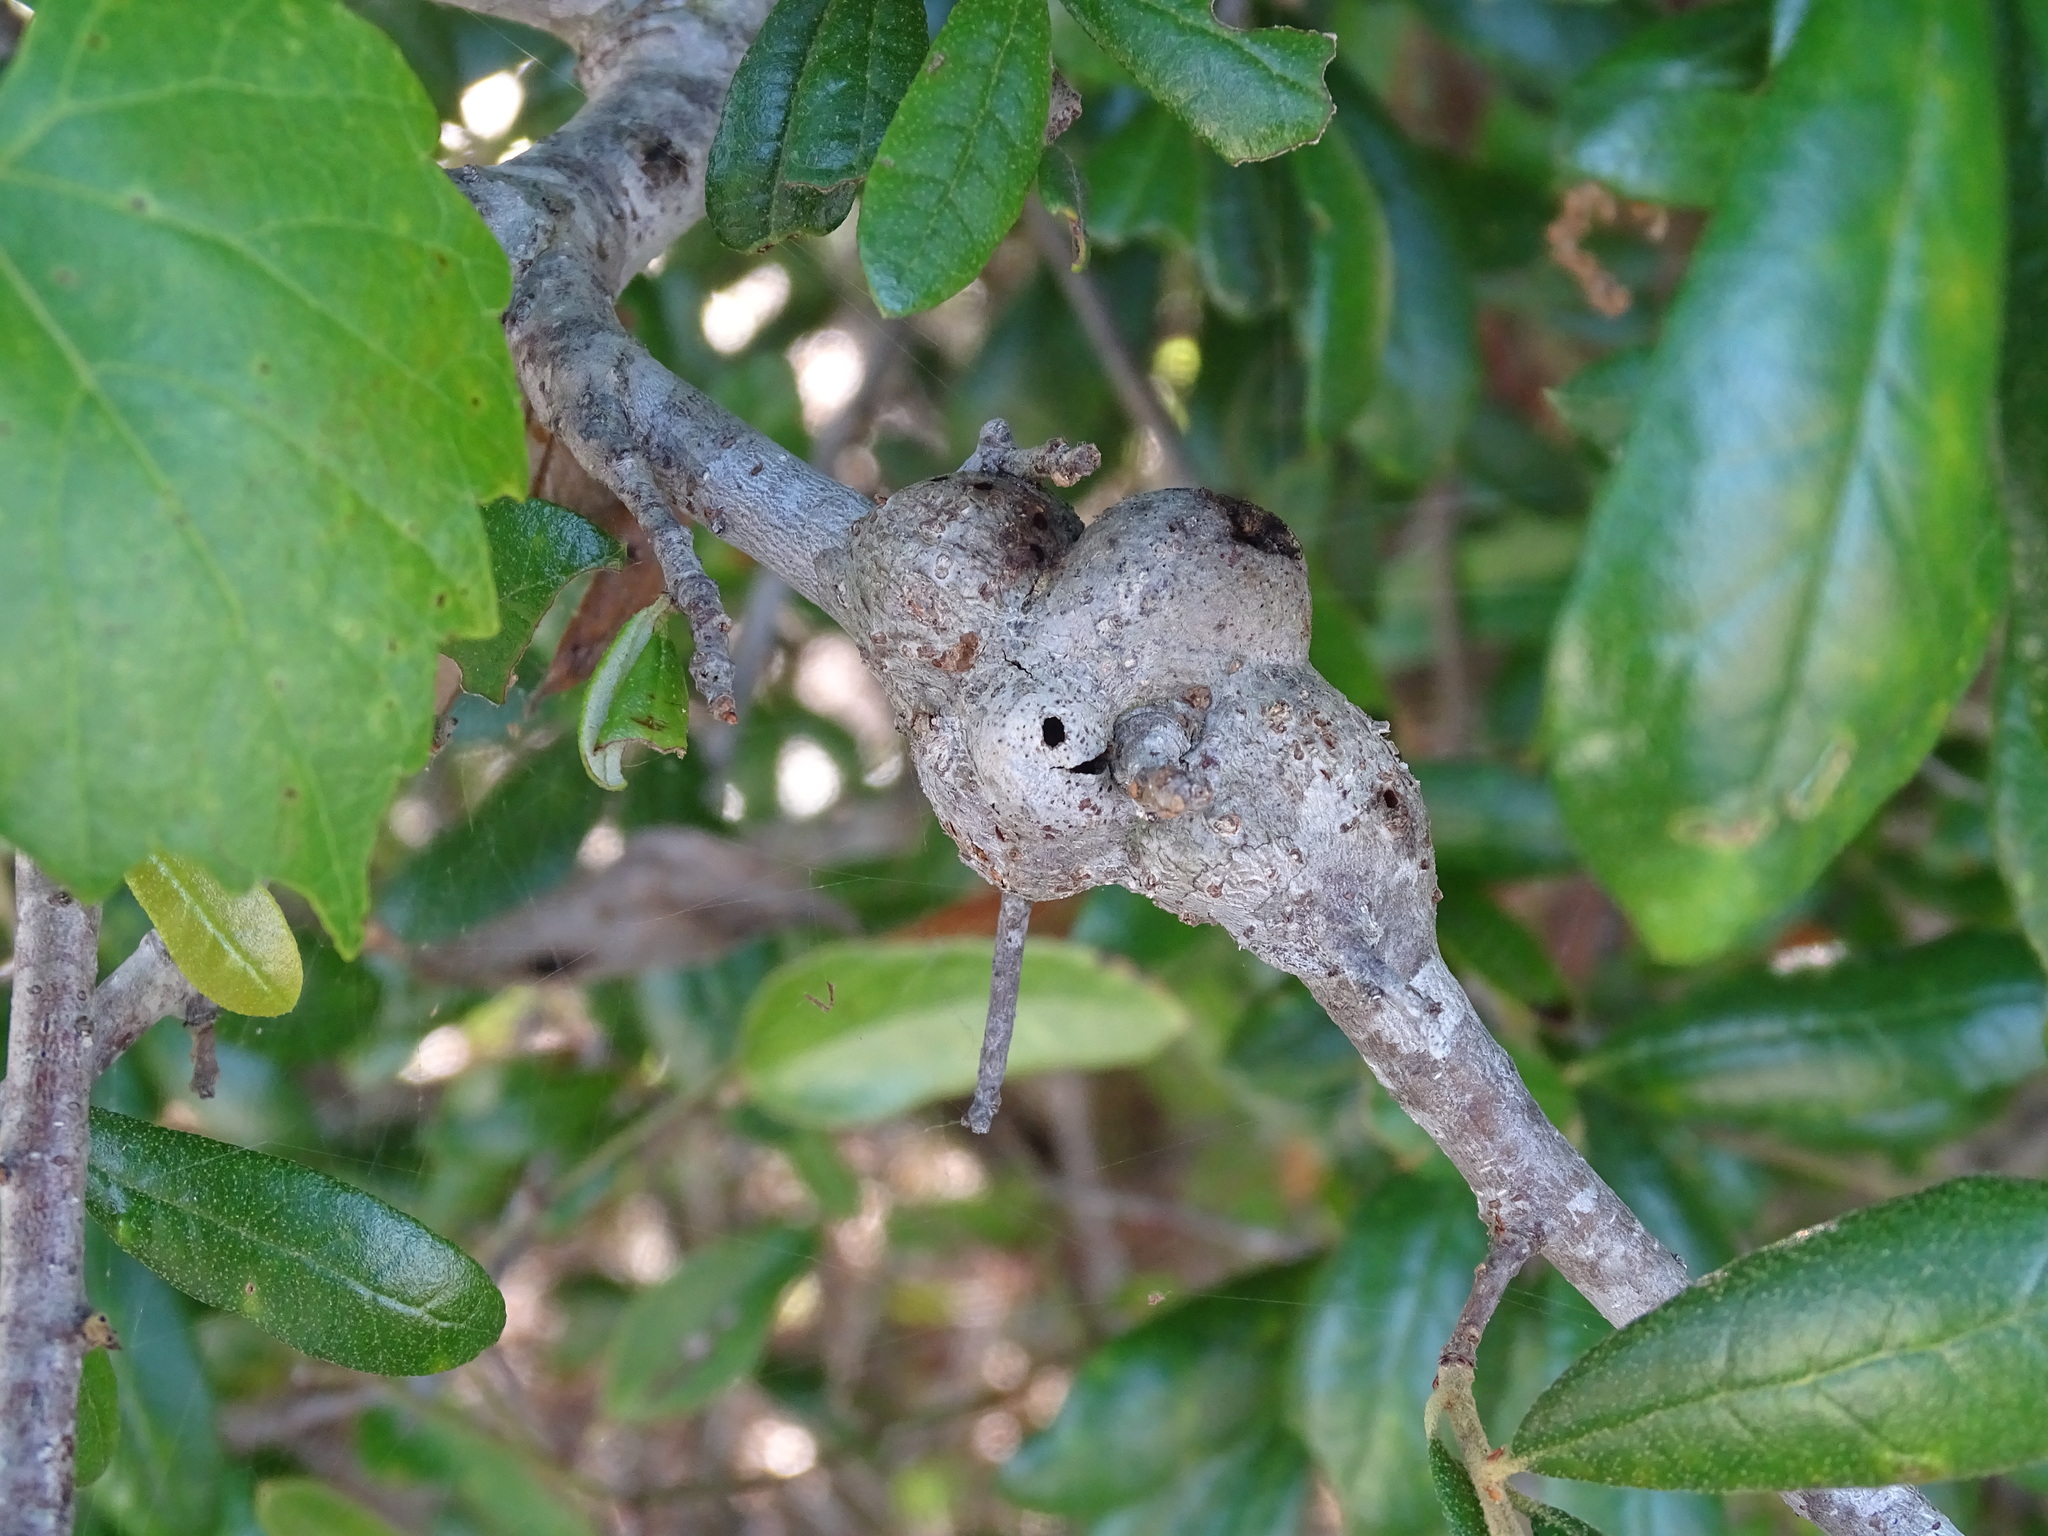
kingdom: Animalia
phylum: Arthropoda
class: Insecta
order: Hymenoptera
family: Cynipidae
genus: Callirhytis
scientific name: Callirhytis
